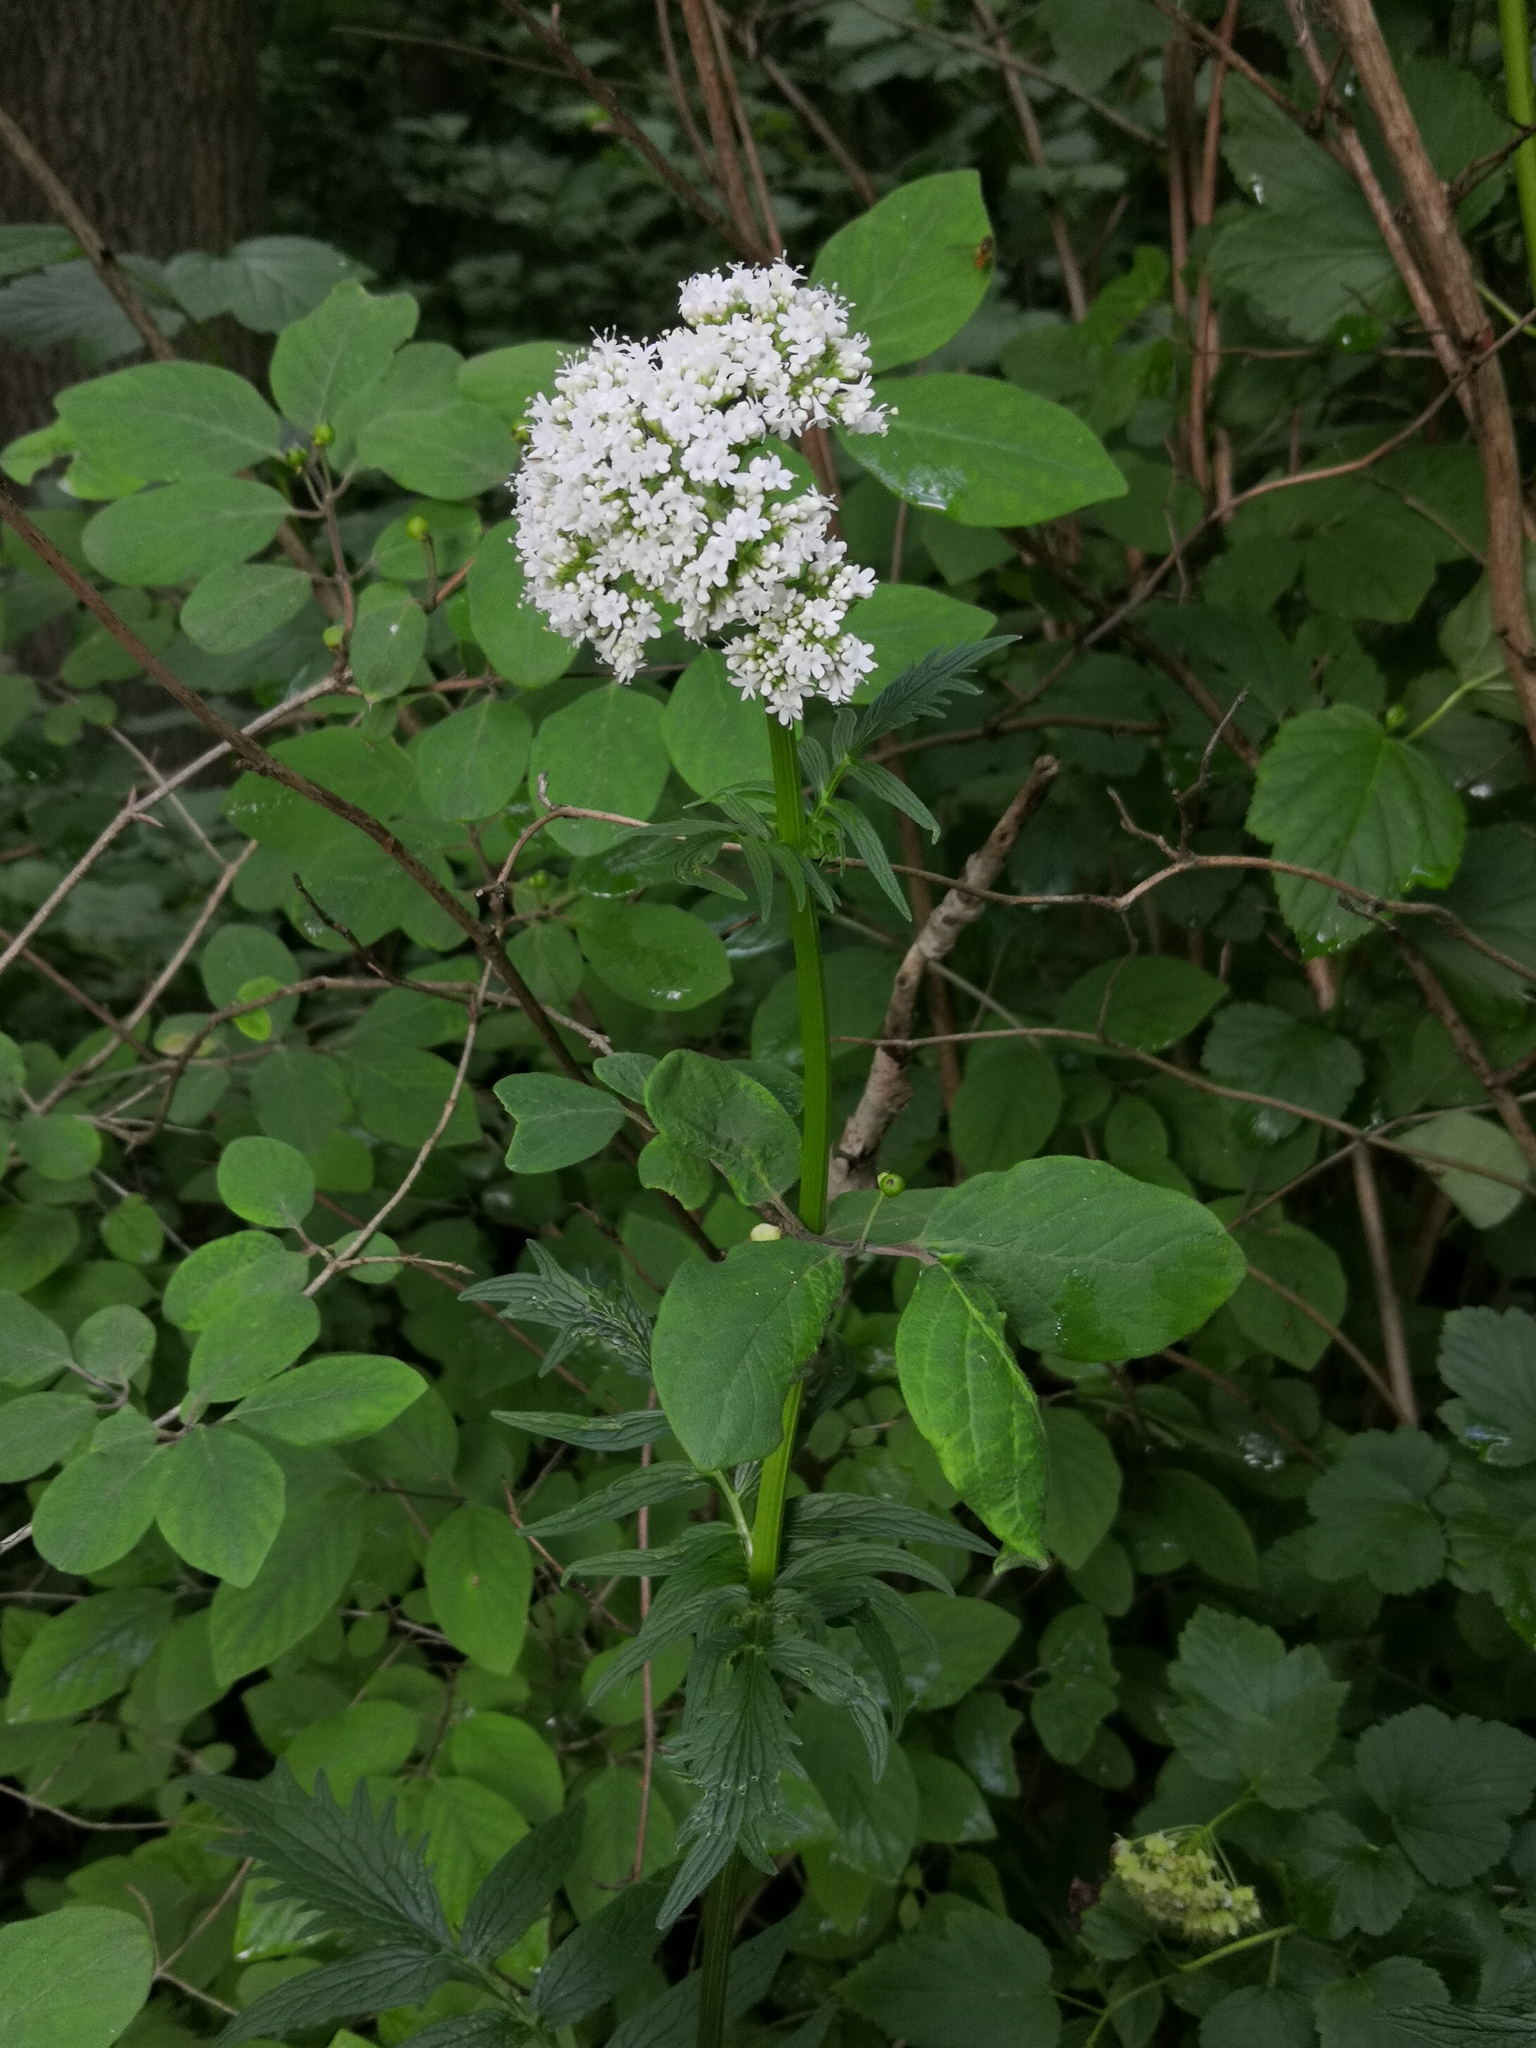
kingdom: Plantae
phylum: Tracheophyta
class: Magnoliopsida
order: Dipsacales
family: Caprifoliaceae
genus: Valeriana
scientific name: Valeriana officinalis
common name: Common valerian
